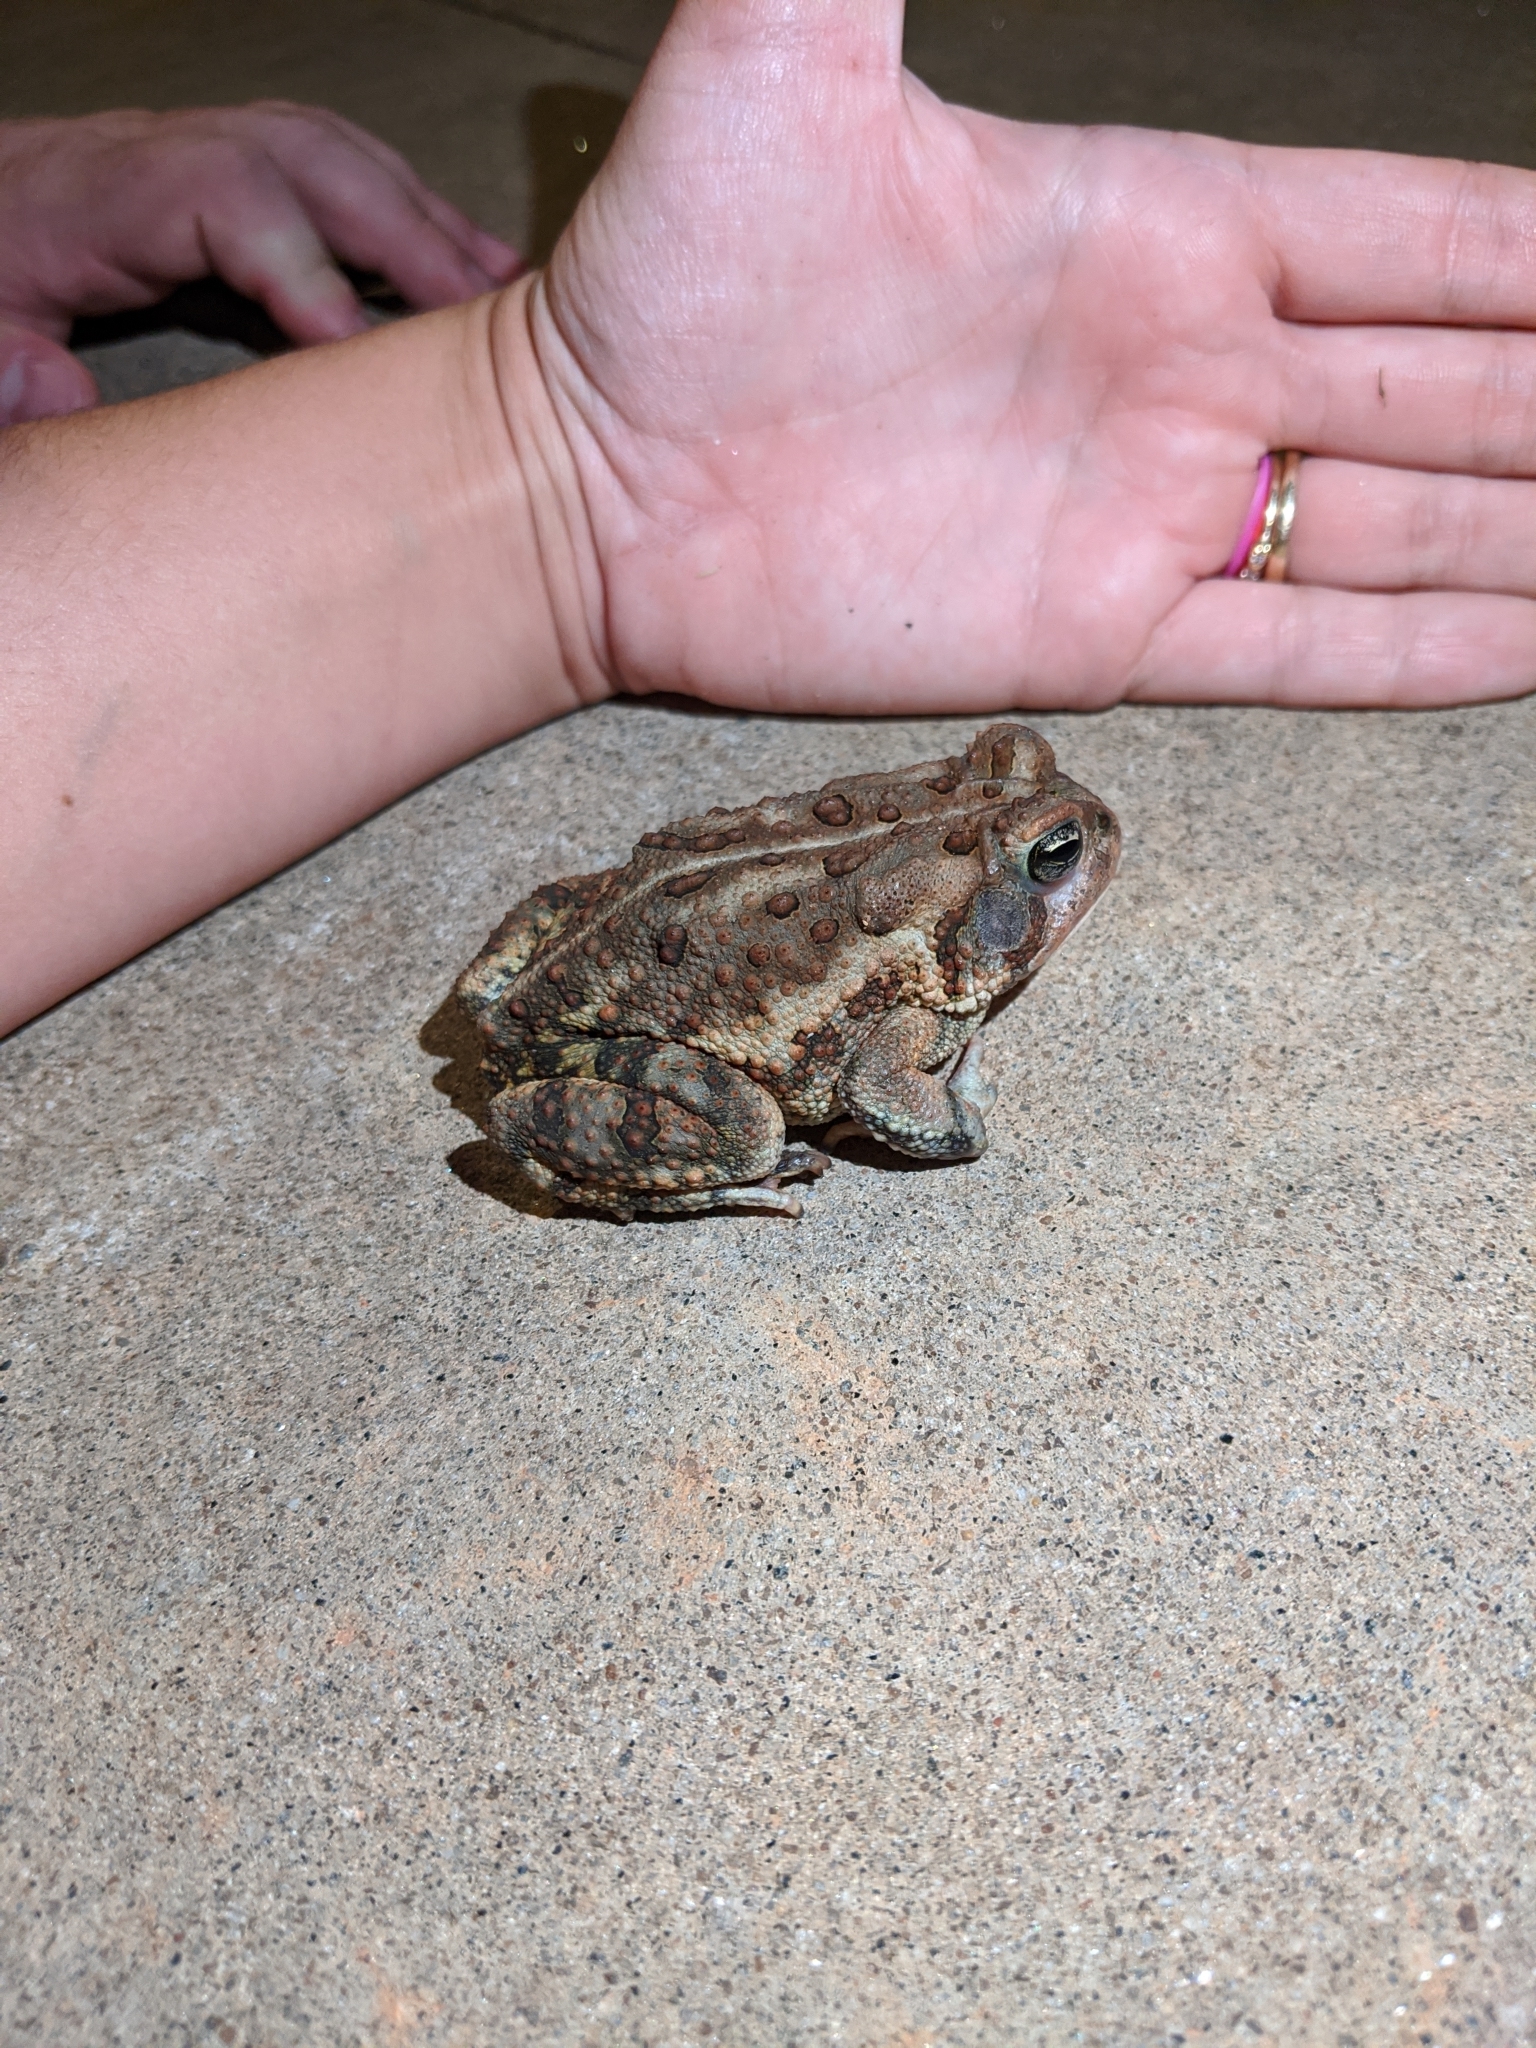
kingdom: Animalia
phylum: Chordata
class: Amphibia
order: Anura
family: Bufonidae
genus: Anaxyrus
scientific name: Anaxyrus fowleri
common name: Fowler's toad
